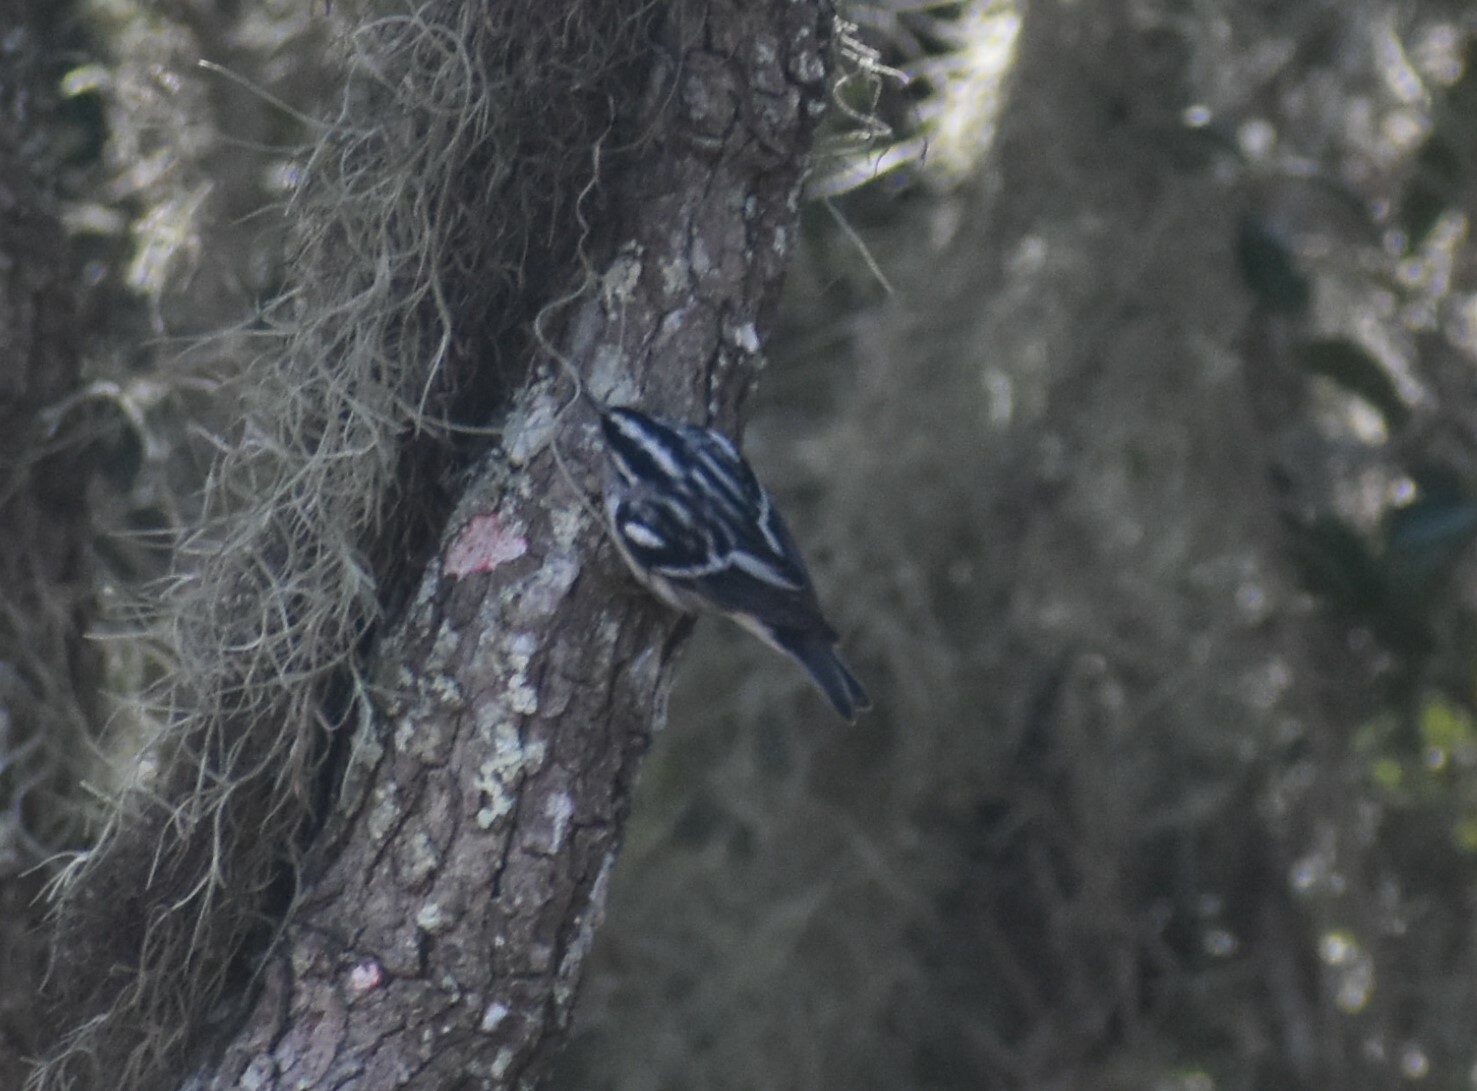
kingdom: Animalia
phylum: Chordata
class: Aves
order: Passeriformes
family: Parulidae
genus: Mniotilta
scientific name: Mniotilta varia
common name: Black-and-white warbler
